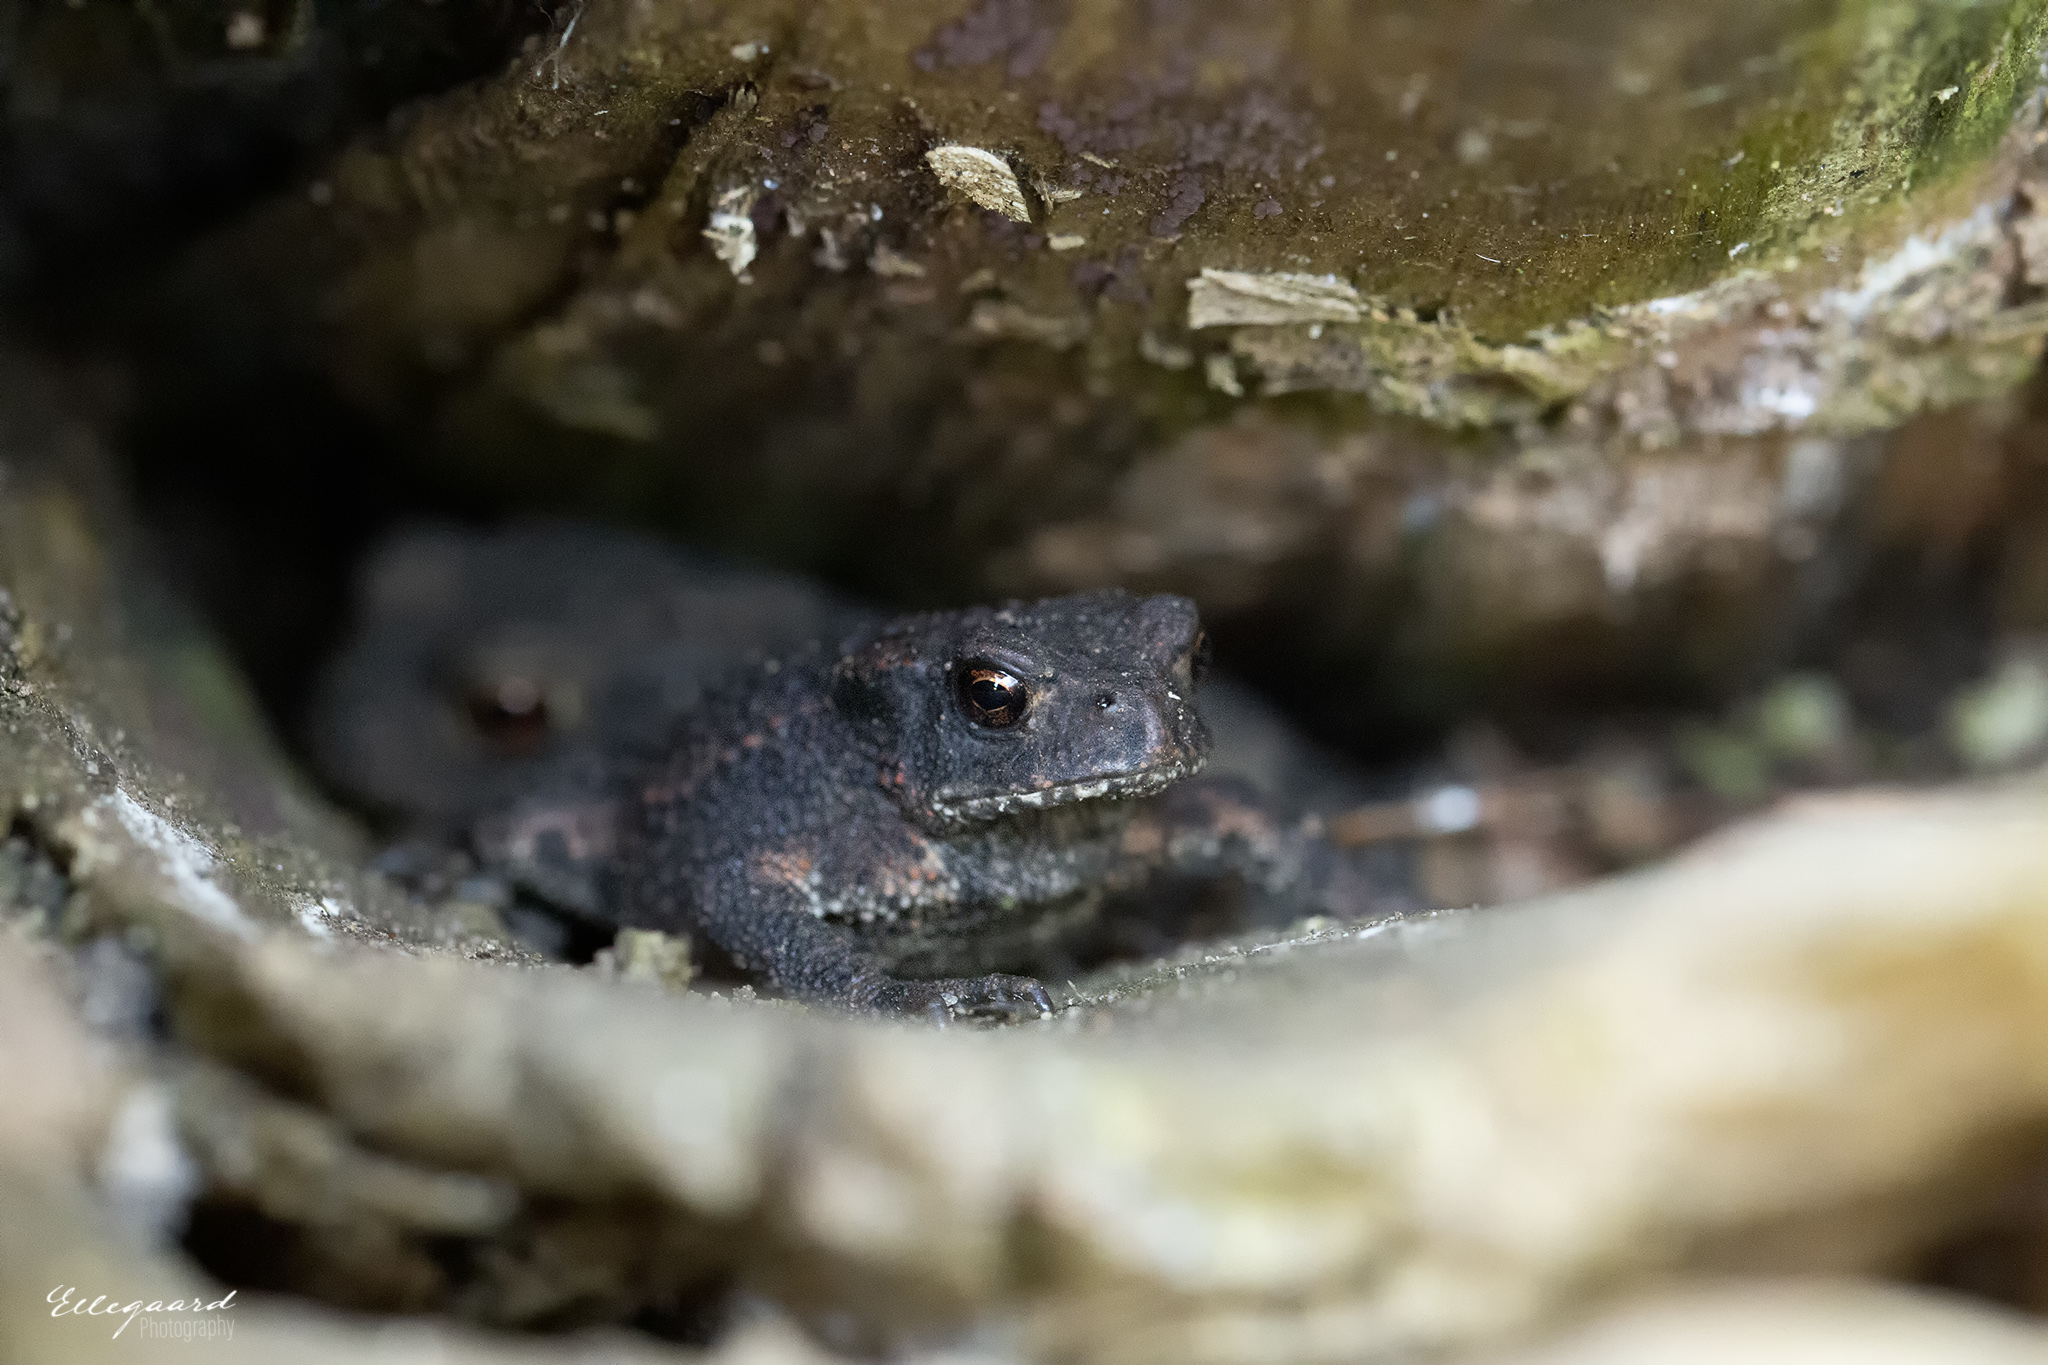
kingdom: Animalia
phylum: Chordata
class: Amphibia
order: Anura
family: Bufonidae
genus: Bufo
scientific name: Bufo bufo
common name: Common toad
